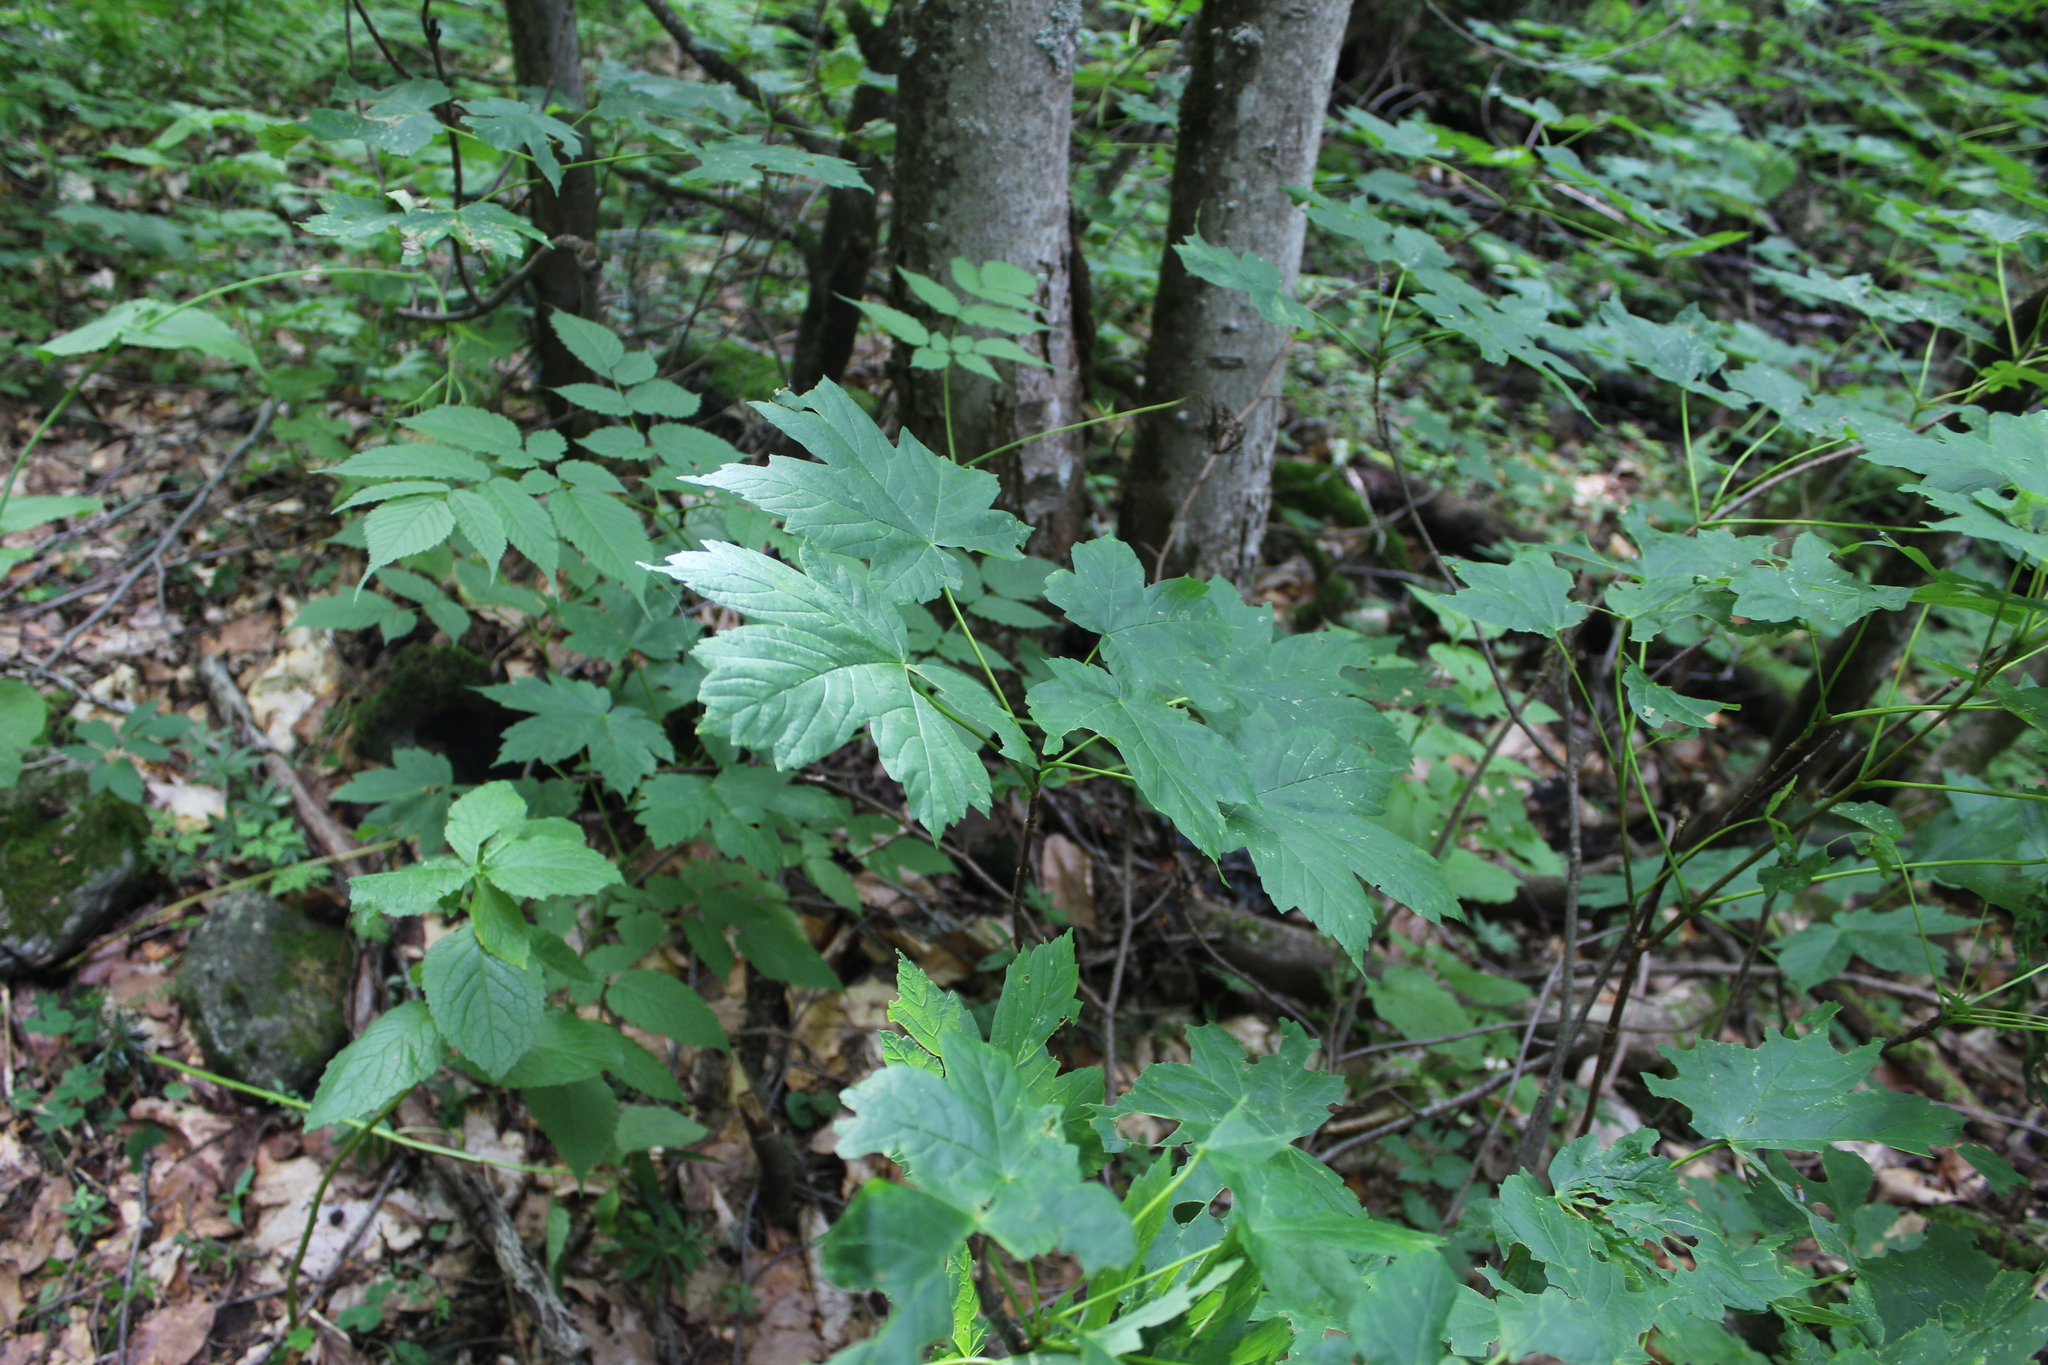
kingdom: Plantae
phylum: Tracheophyta
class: Magnoliopsida
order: Sapindales
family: Sapindaceae
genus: Acer
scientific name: Acer heldreichii
